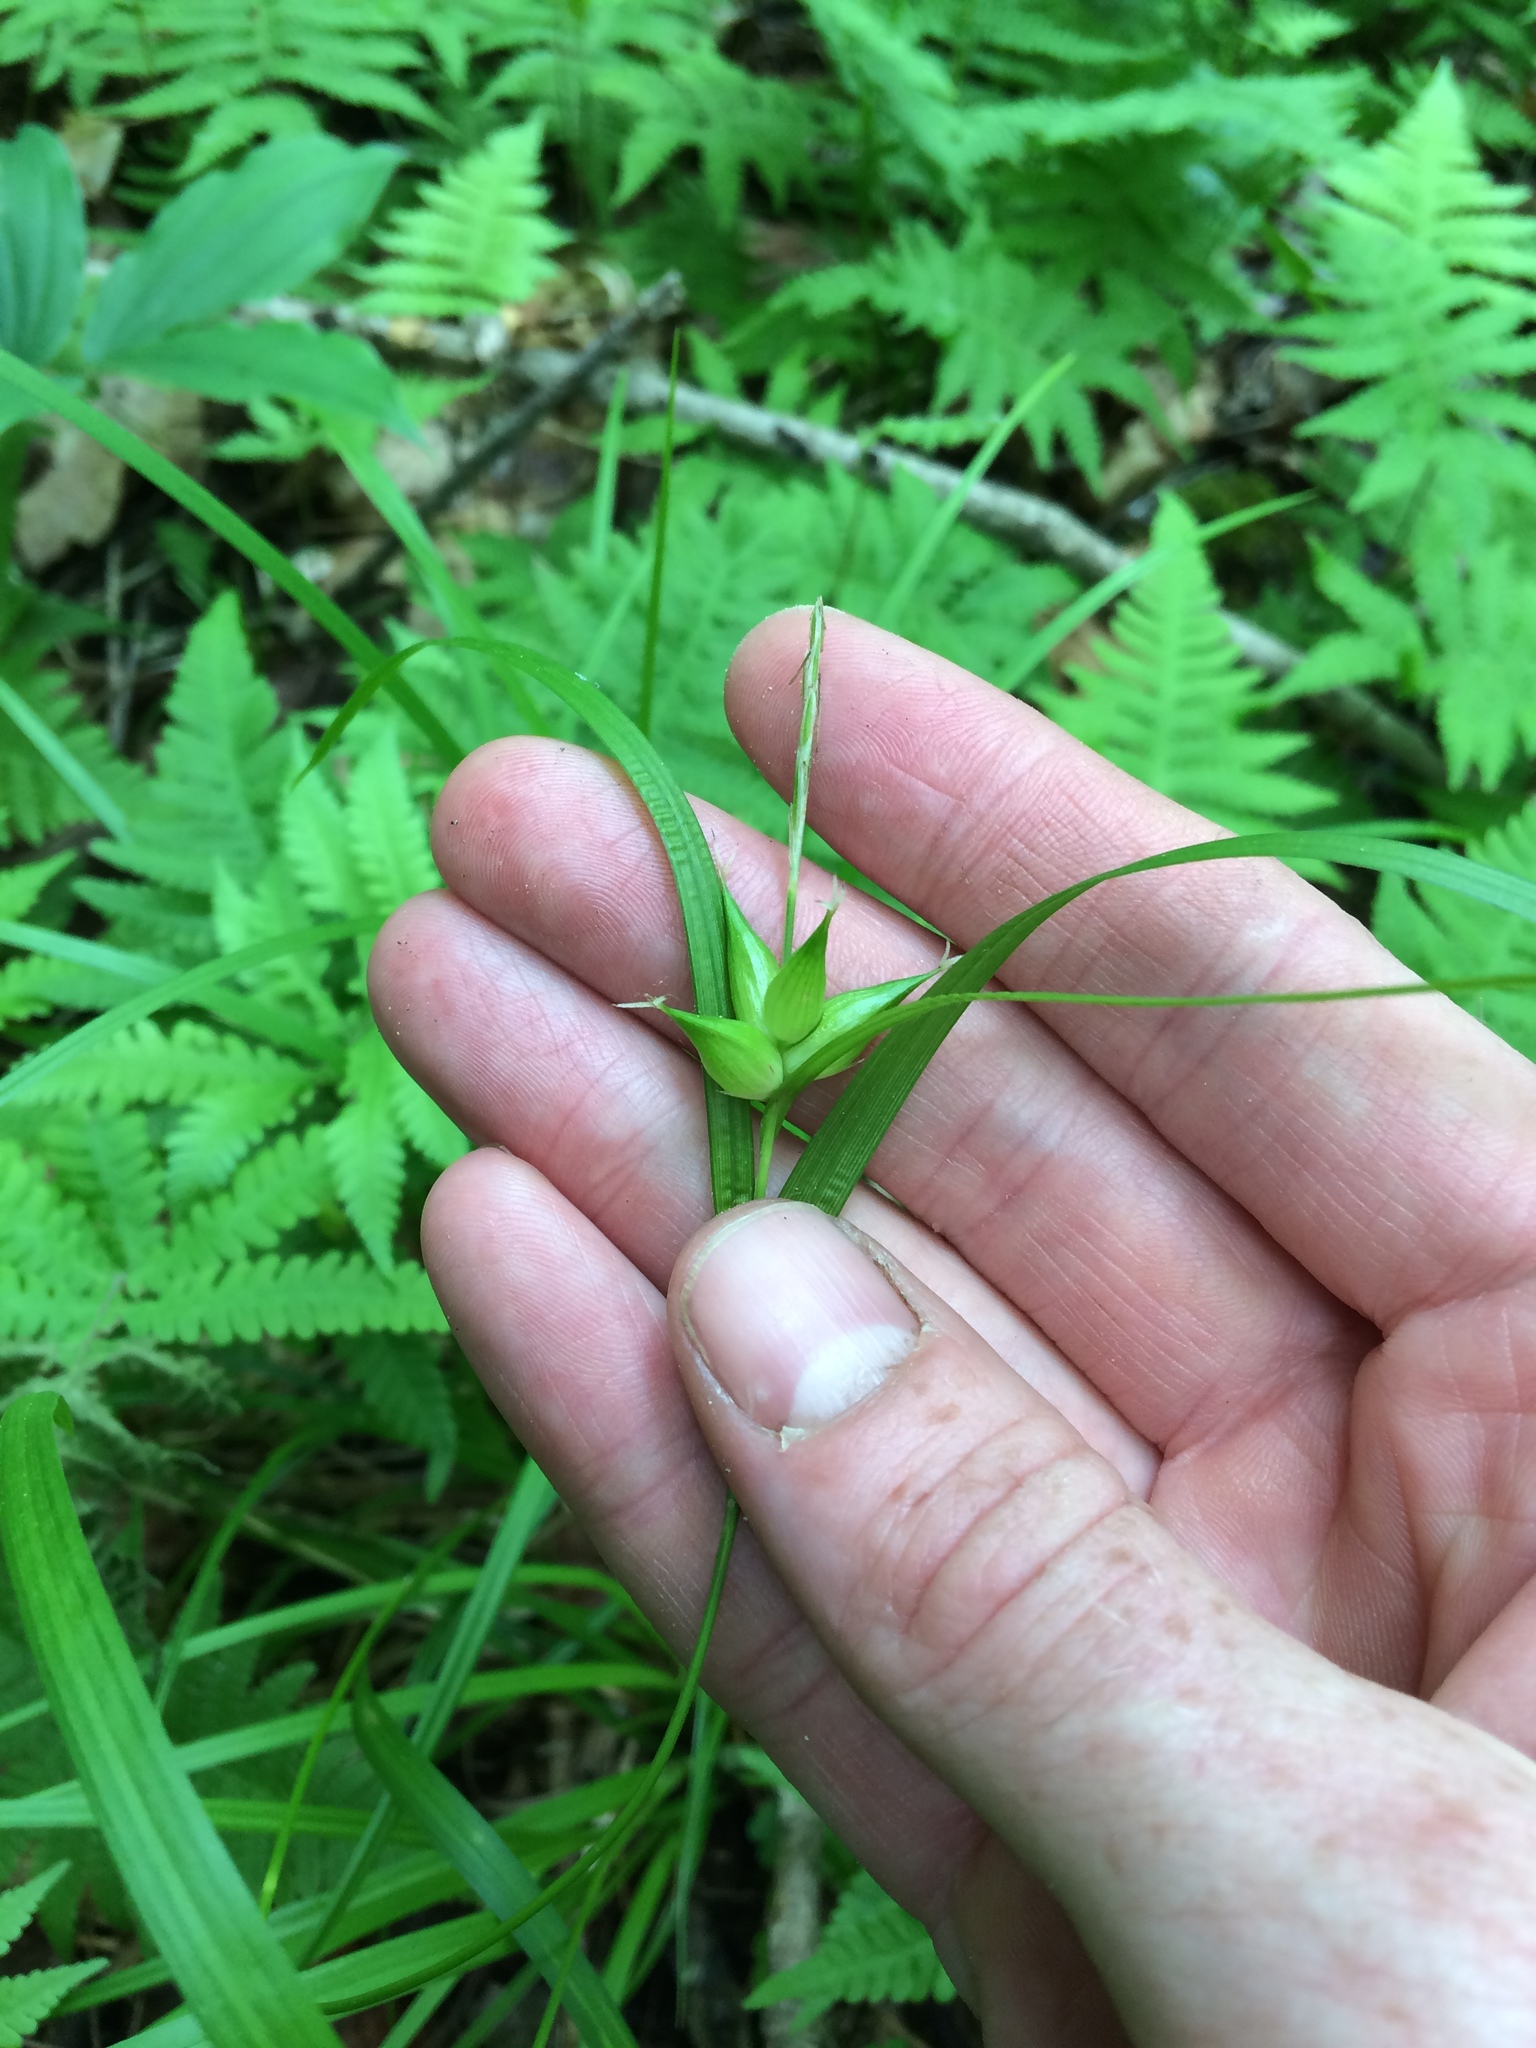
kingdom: Plantae
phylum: Tracheophyta
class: Liliopsida
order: Poales
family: Cyperaceae
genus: Carex
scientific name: Carex intumescens
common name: Greater bladder sedge
